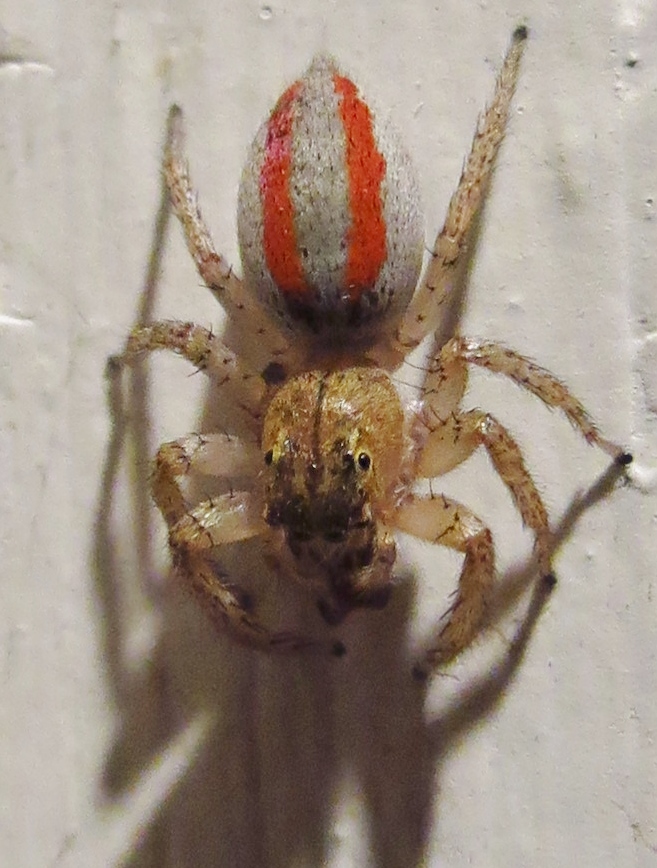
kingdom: Animalia
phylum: Arthropoda
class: Arachnida
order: Araneae
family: Salticidae
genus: Maevia
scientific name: Maevia inclemens
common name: Dimorphic jumper
